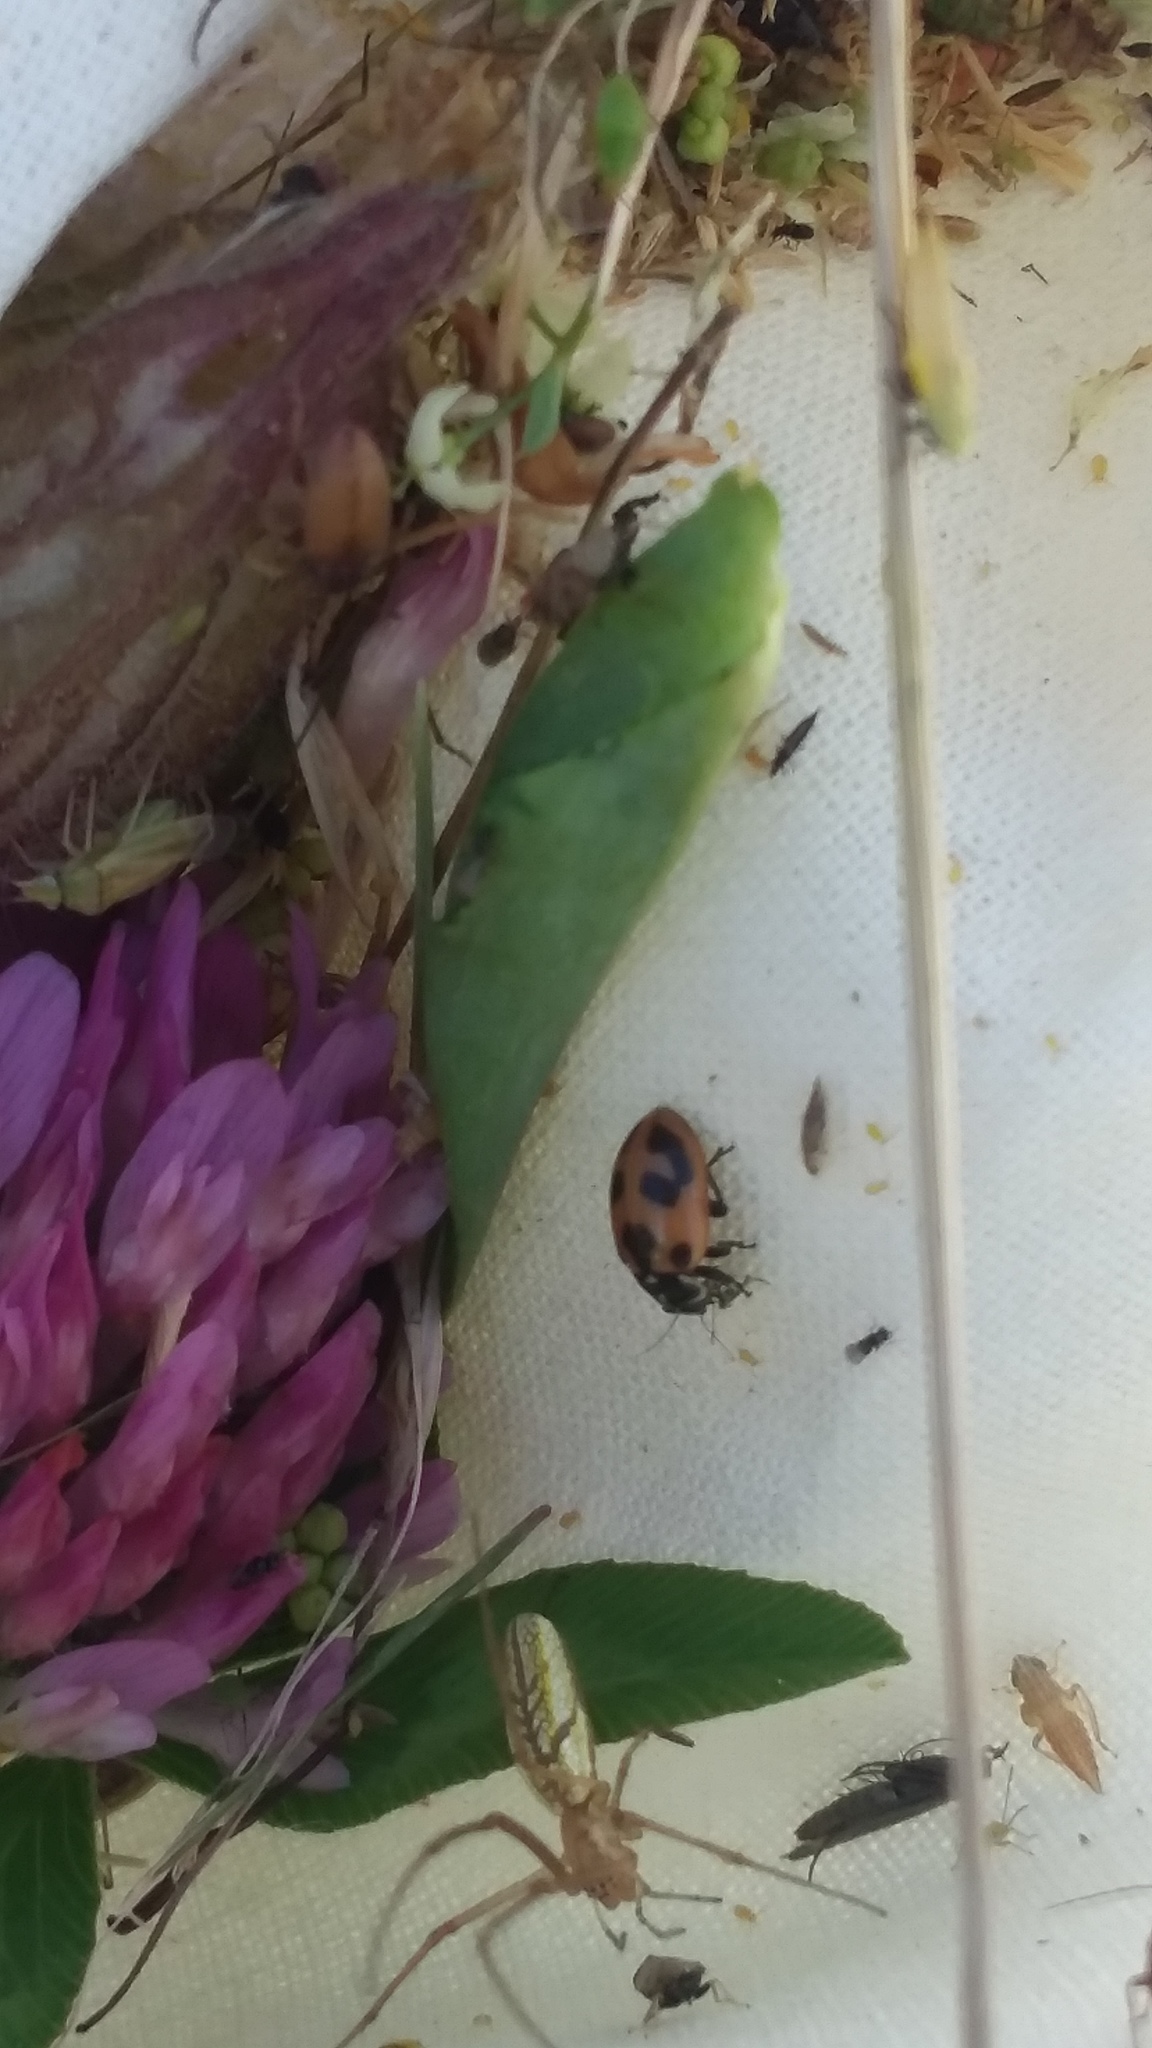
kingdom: Animalia
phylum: Arthropoda
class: Insecta
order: Coleoptera
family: Coccinellidae
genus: Hippodamia
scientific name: Hippodamia parenthesis
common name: Parenthesis lady beetle
